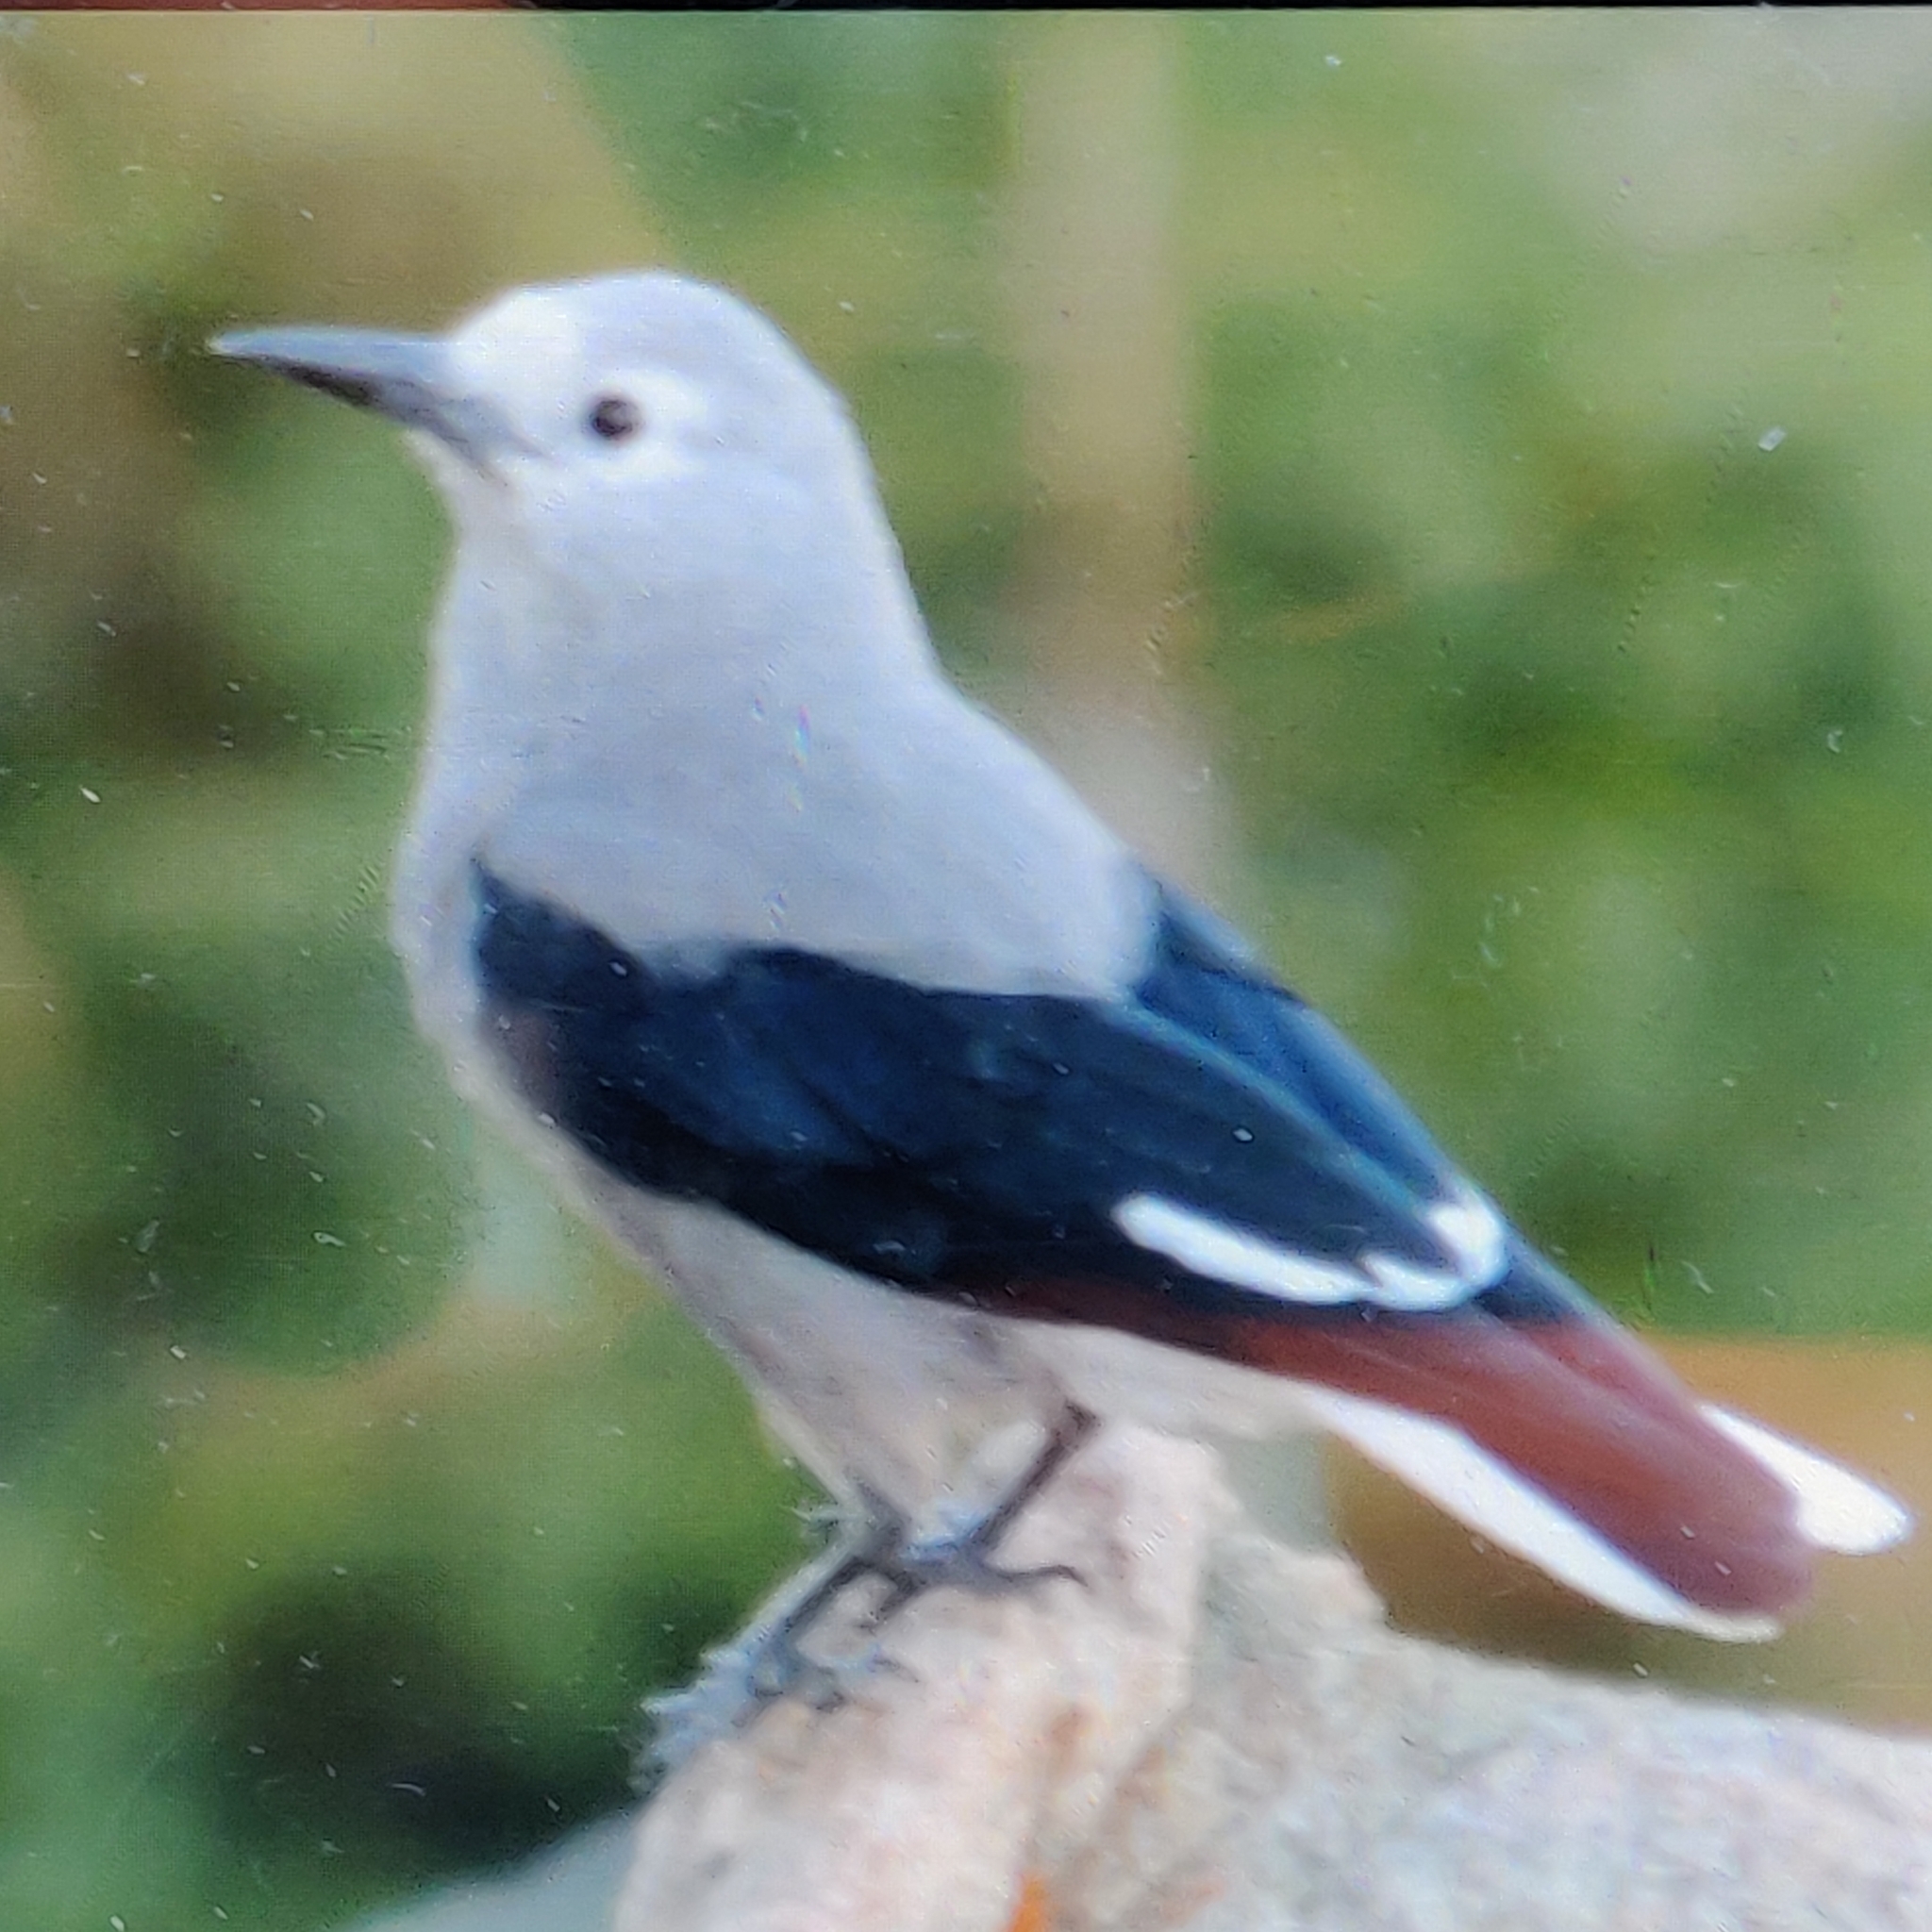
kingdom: Animalia
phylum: Chordata
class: Aves
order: Passeriformes
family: Corvidae
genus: Nucifraga
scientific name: Nucifraga columbiana
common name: Clark's nutcracker
